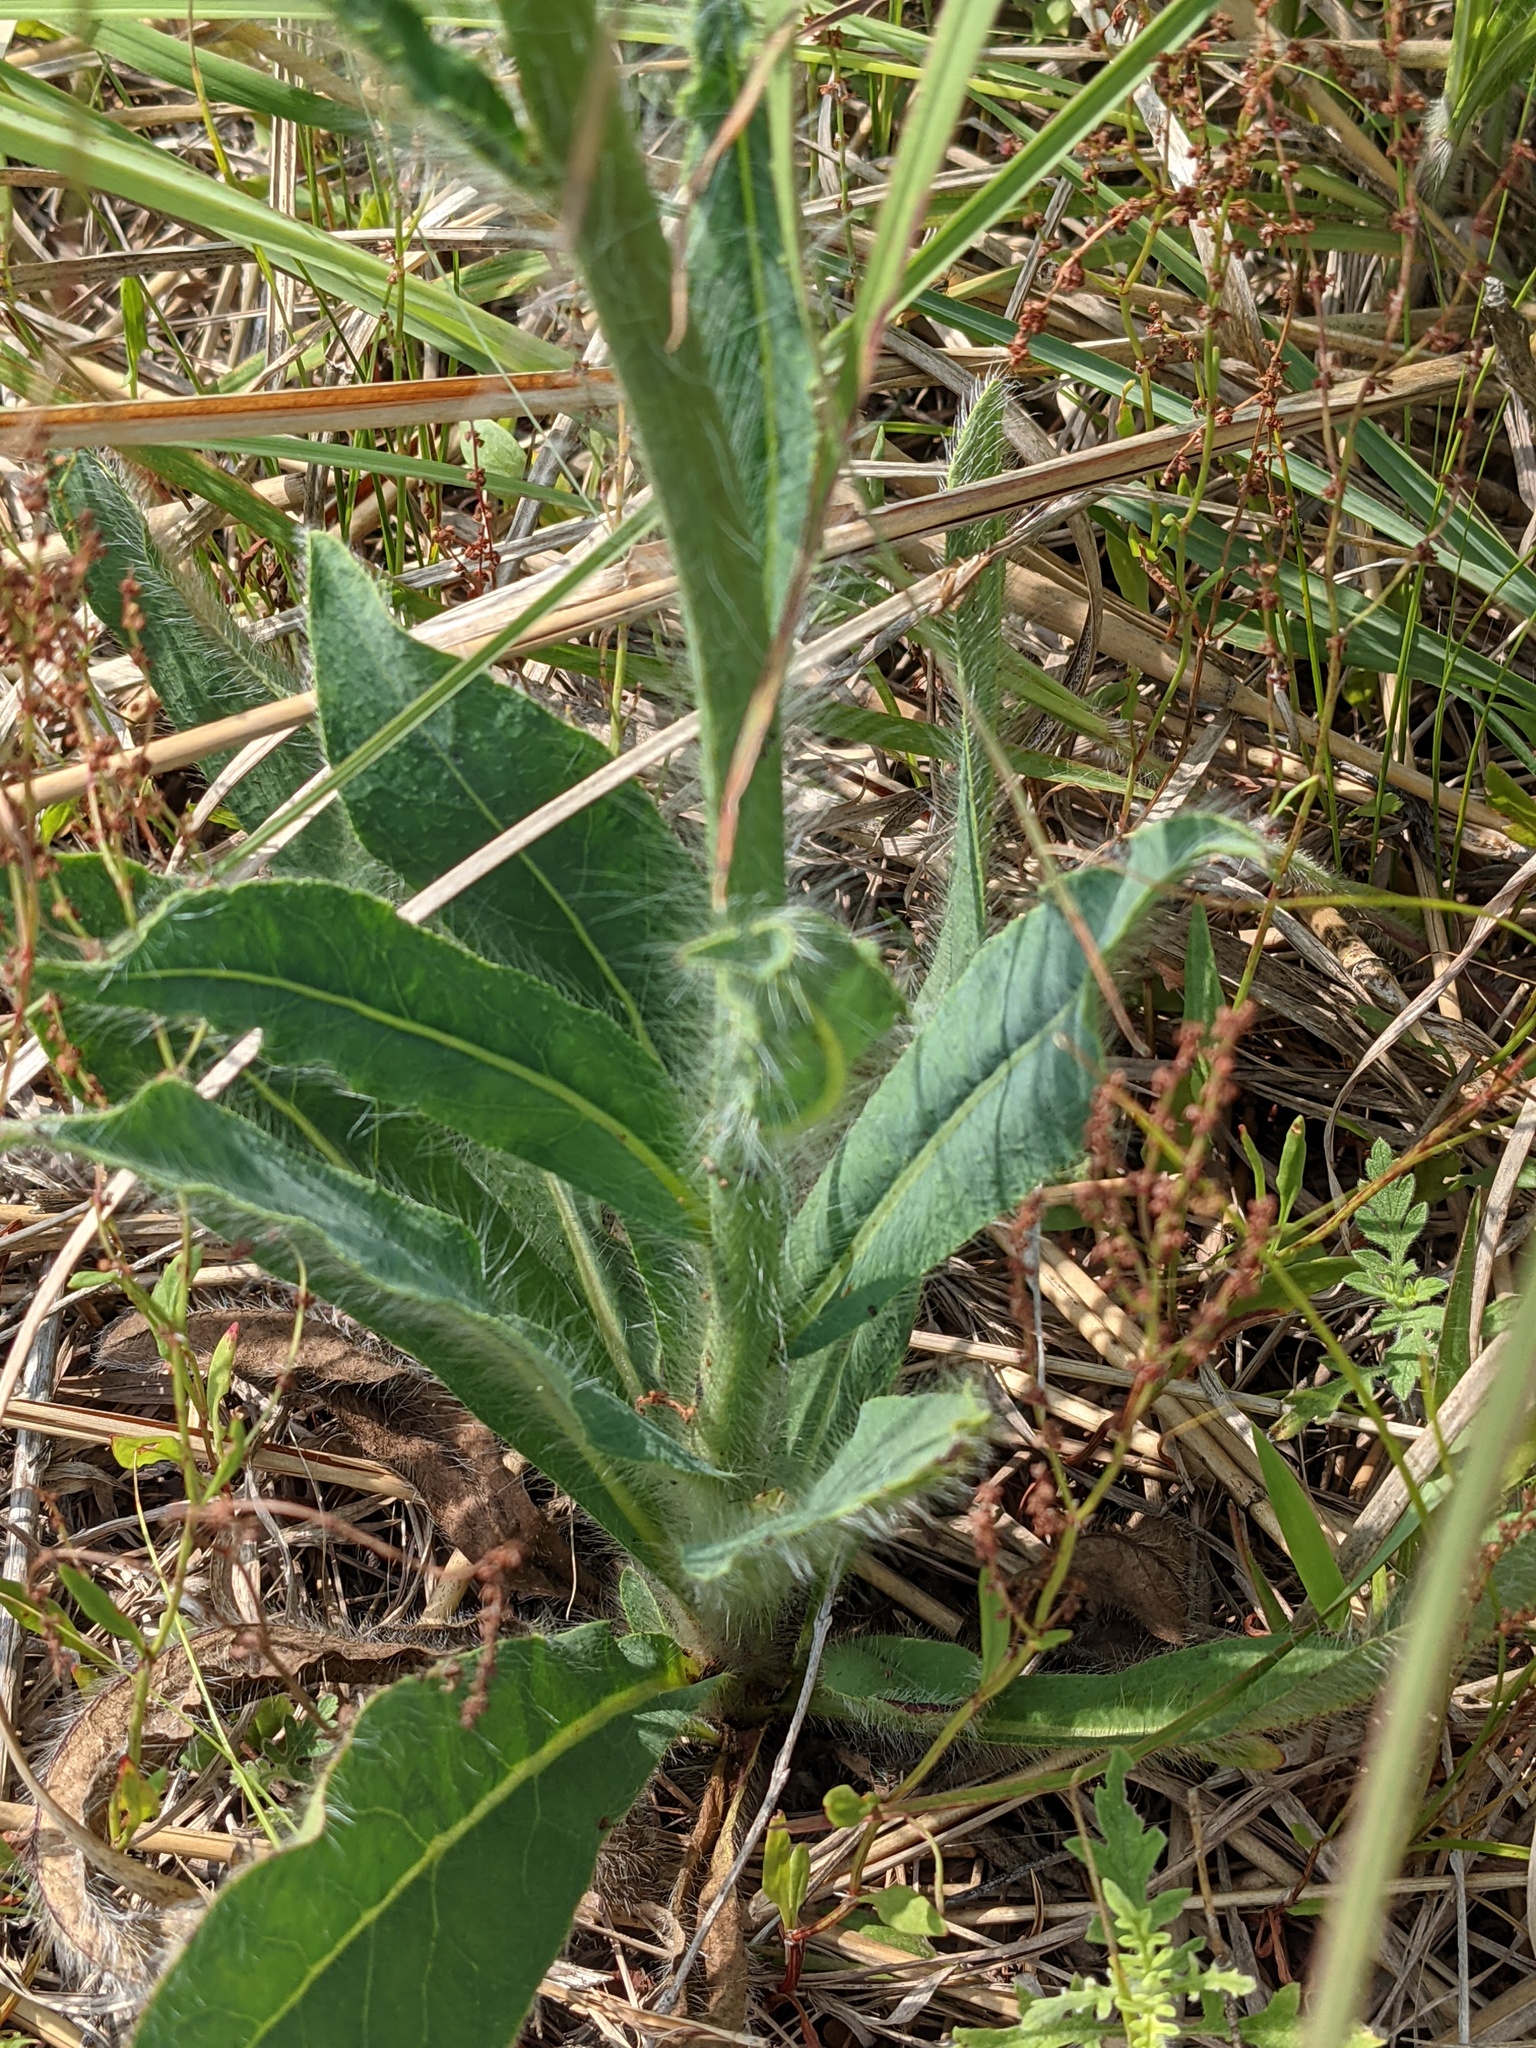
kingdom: Plantae
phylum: Tracheophyta
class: Magnoliopsida
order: Asterales
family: Asteraceae
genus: Hieracium
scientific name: Hieracium longipilum
